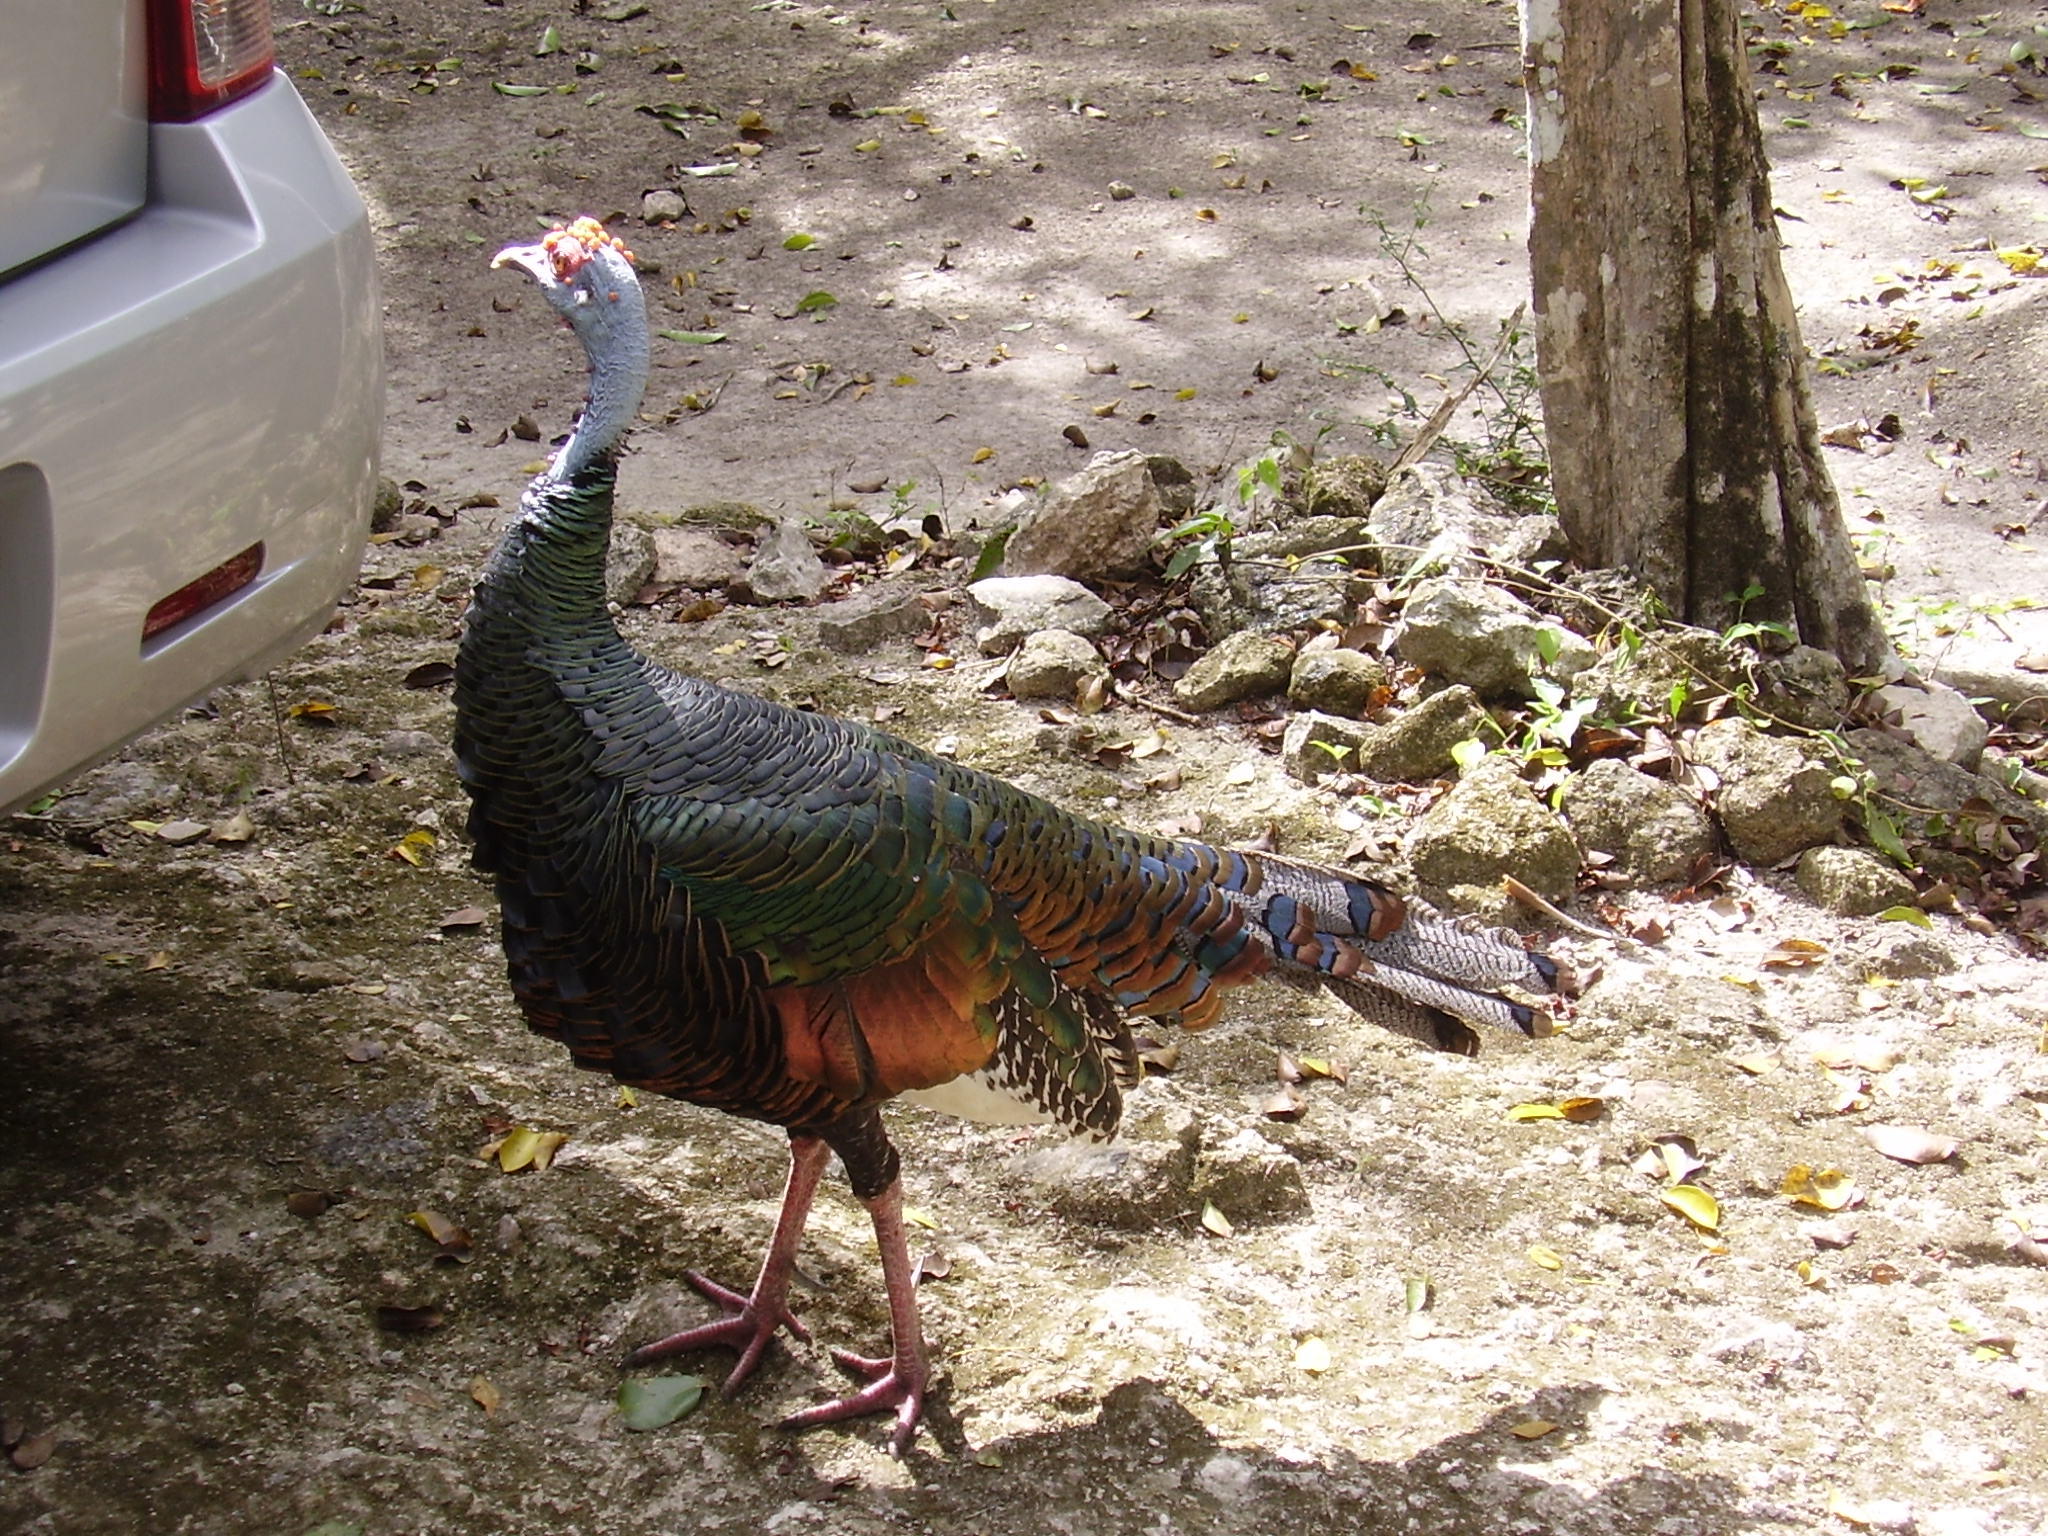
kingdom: Animalia
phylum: Chordata
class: Aves
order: Galliformes
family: Phasianidae
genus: Meleagris
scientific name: Meleagris ocellata
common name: Ocellated turkey
